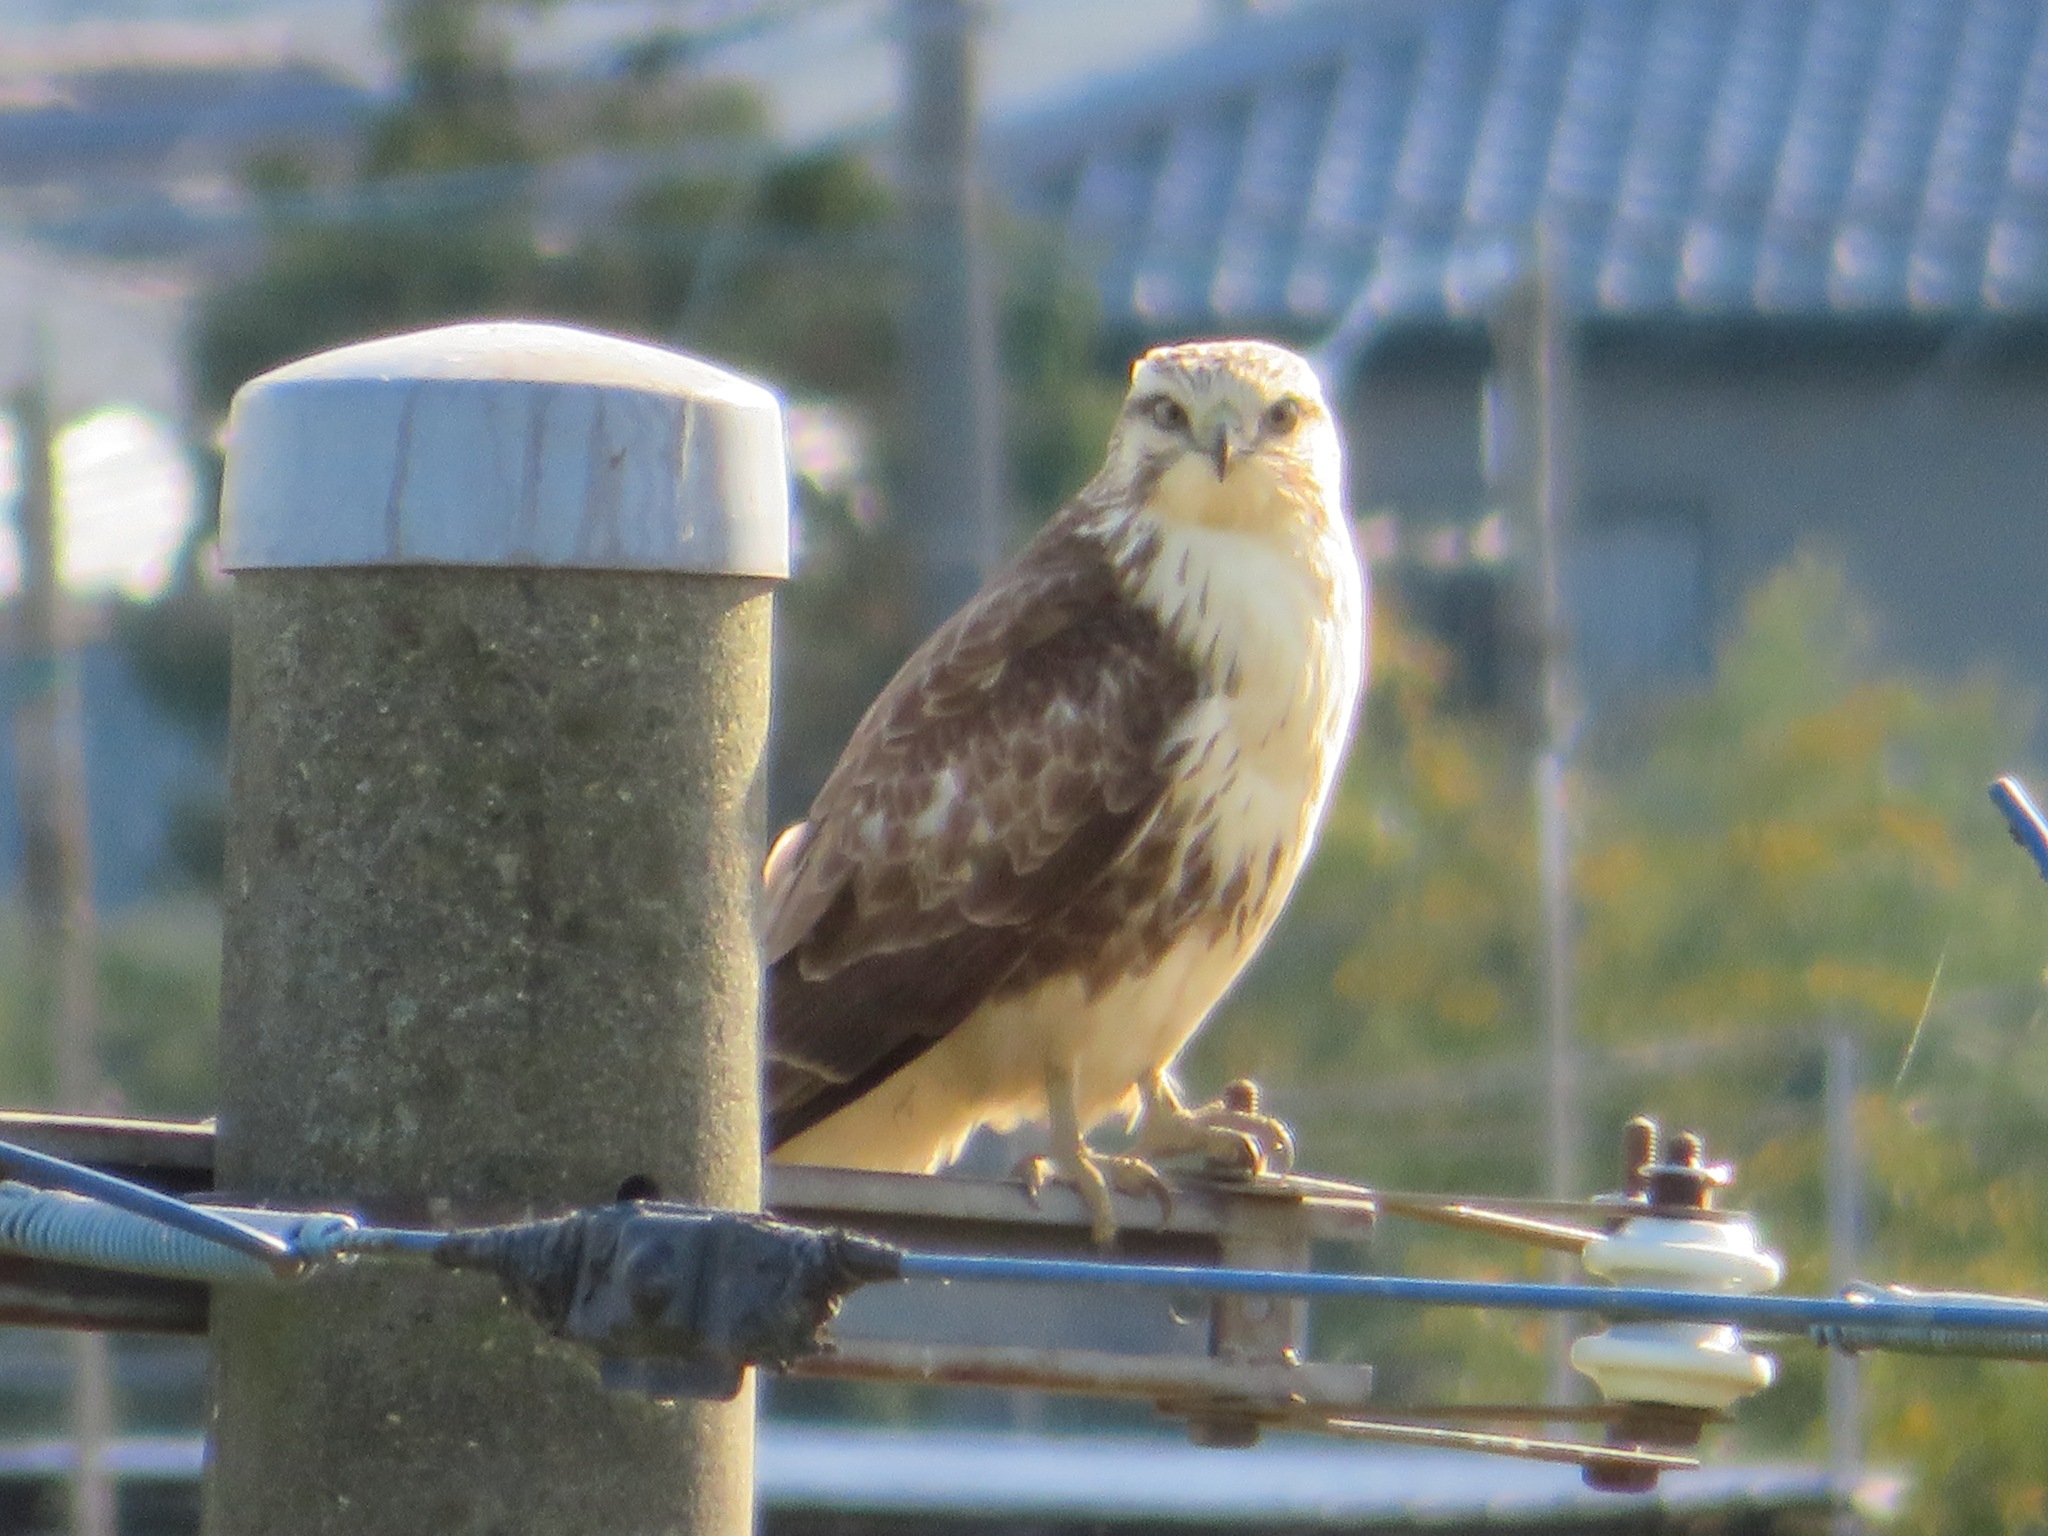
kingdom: Animalia
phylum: Chordata
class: Aves
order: Accipitriformes
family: Accipitridae
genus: Buteo
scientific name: Buteo japonicus
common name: Eastern buzzard
